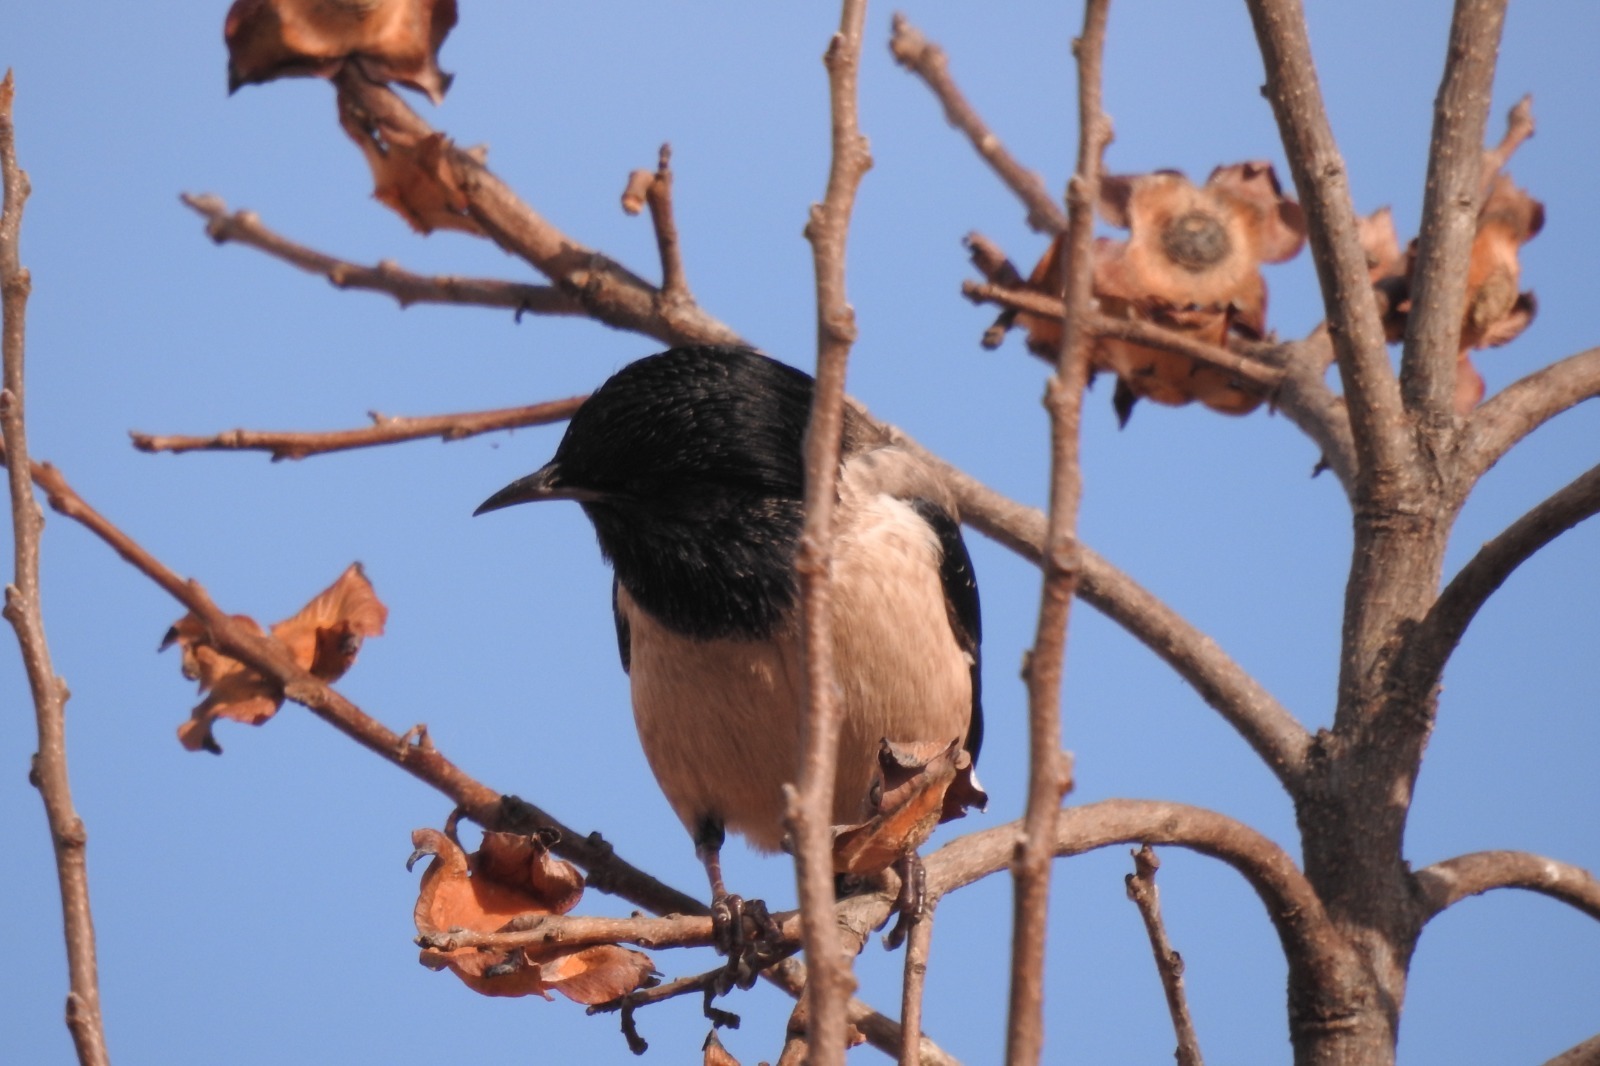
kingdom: Animalia
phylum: Chordata
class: Aves
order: Passeriformes
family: Sturnidae
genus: Pastor
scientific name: Pastor roseus
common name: Rosy starling
